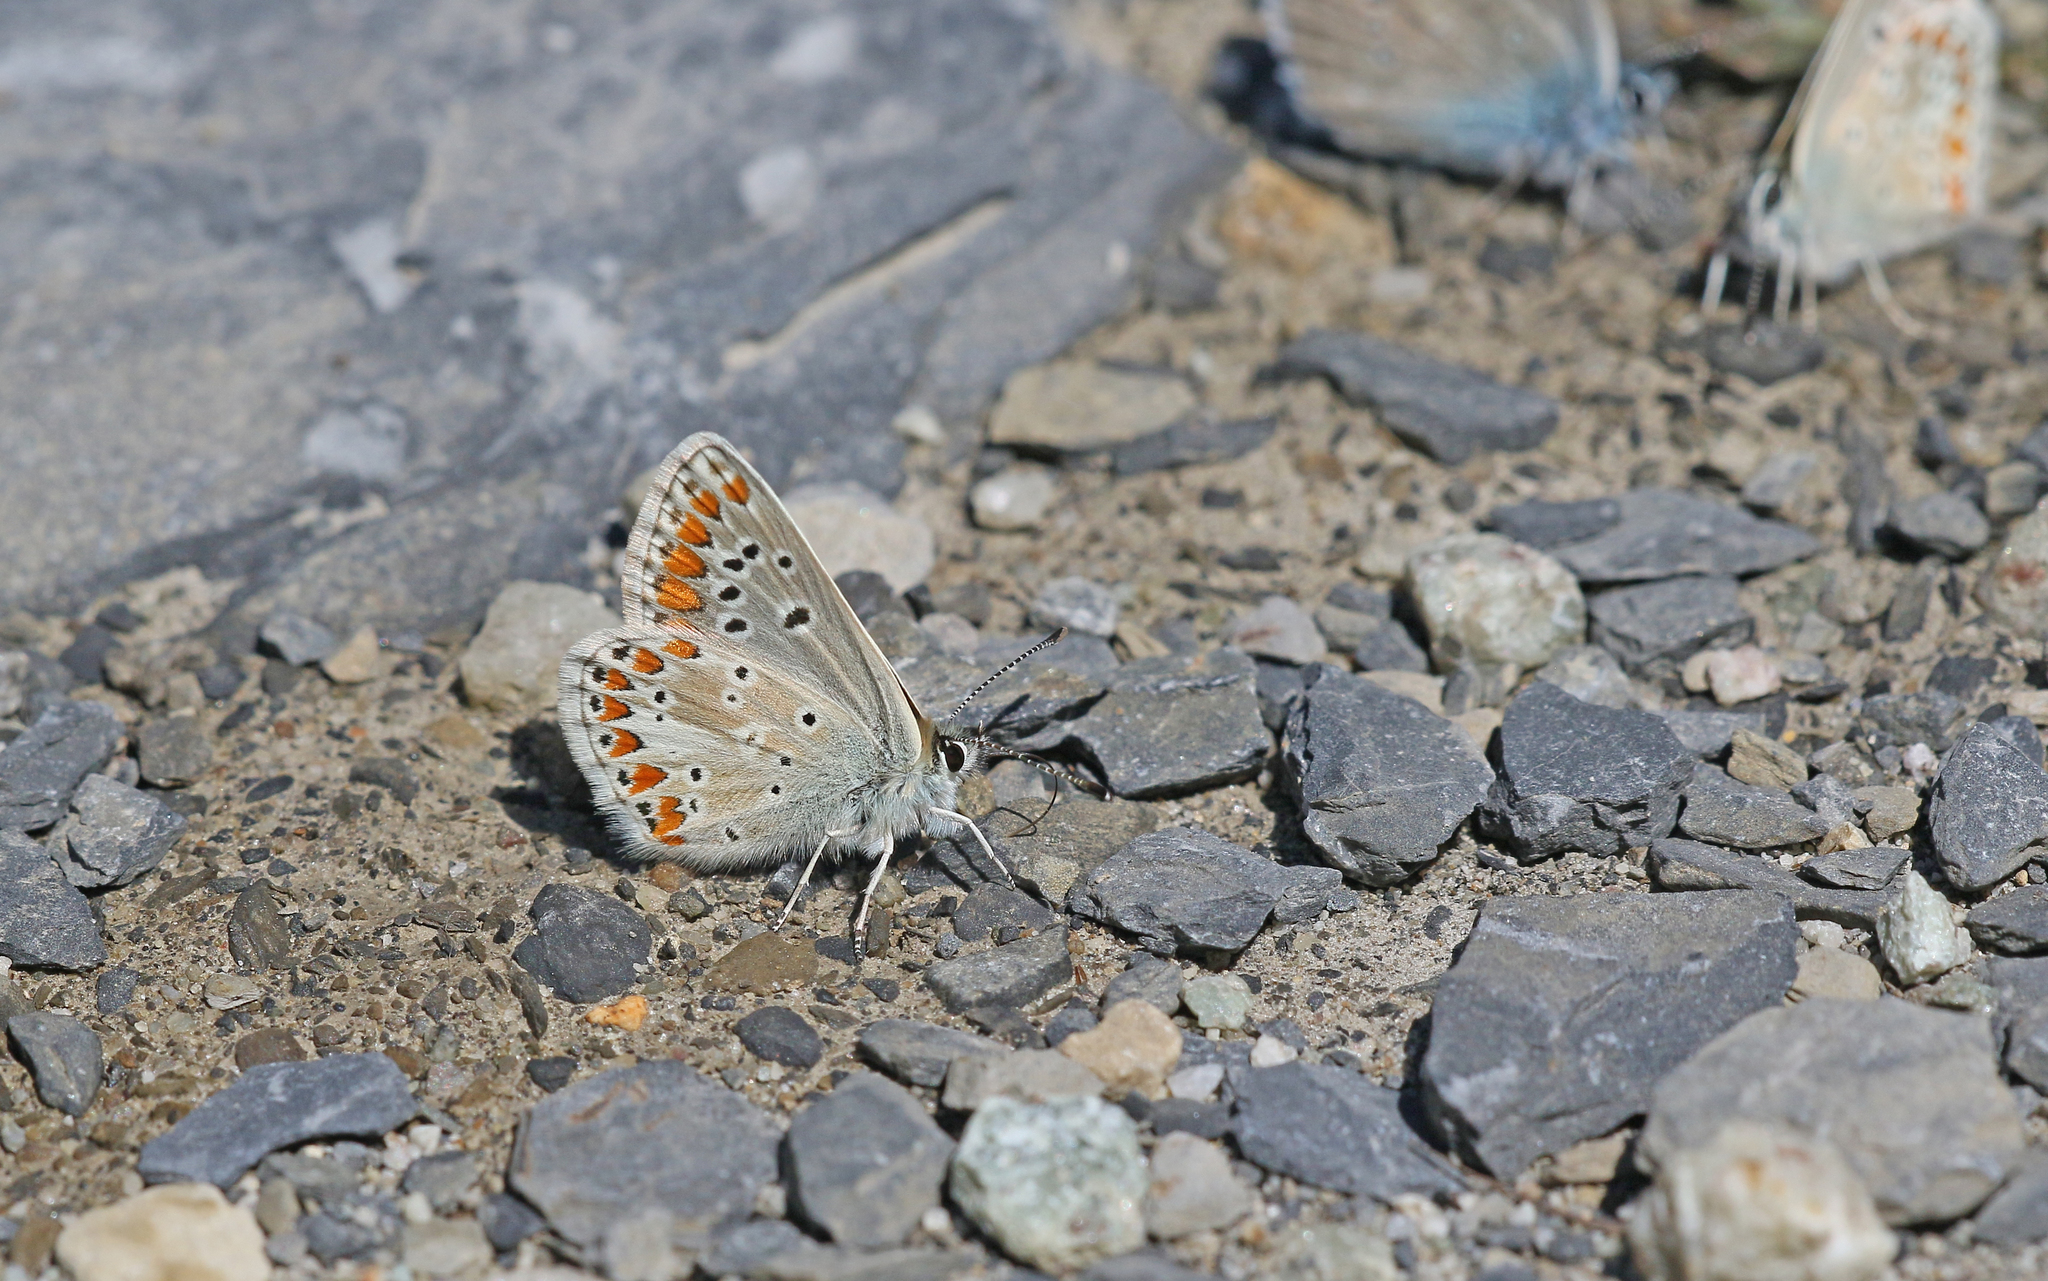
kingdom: Animalia
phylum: Arthropoda
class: Insecta
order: Lepidoptera
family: Lycaenidae
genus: Aricia
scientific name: Aricia artaxerxes
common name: Northern brown argus
